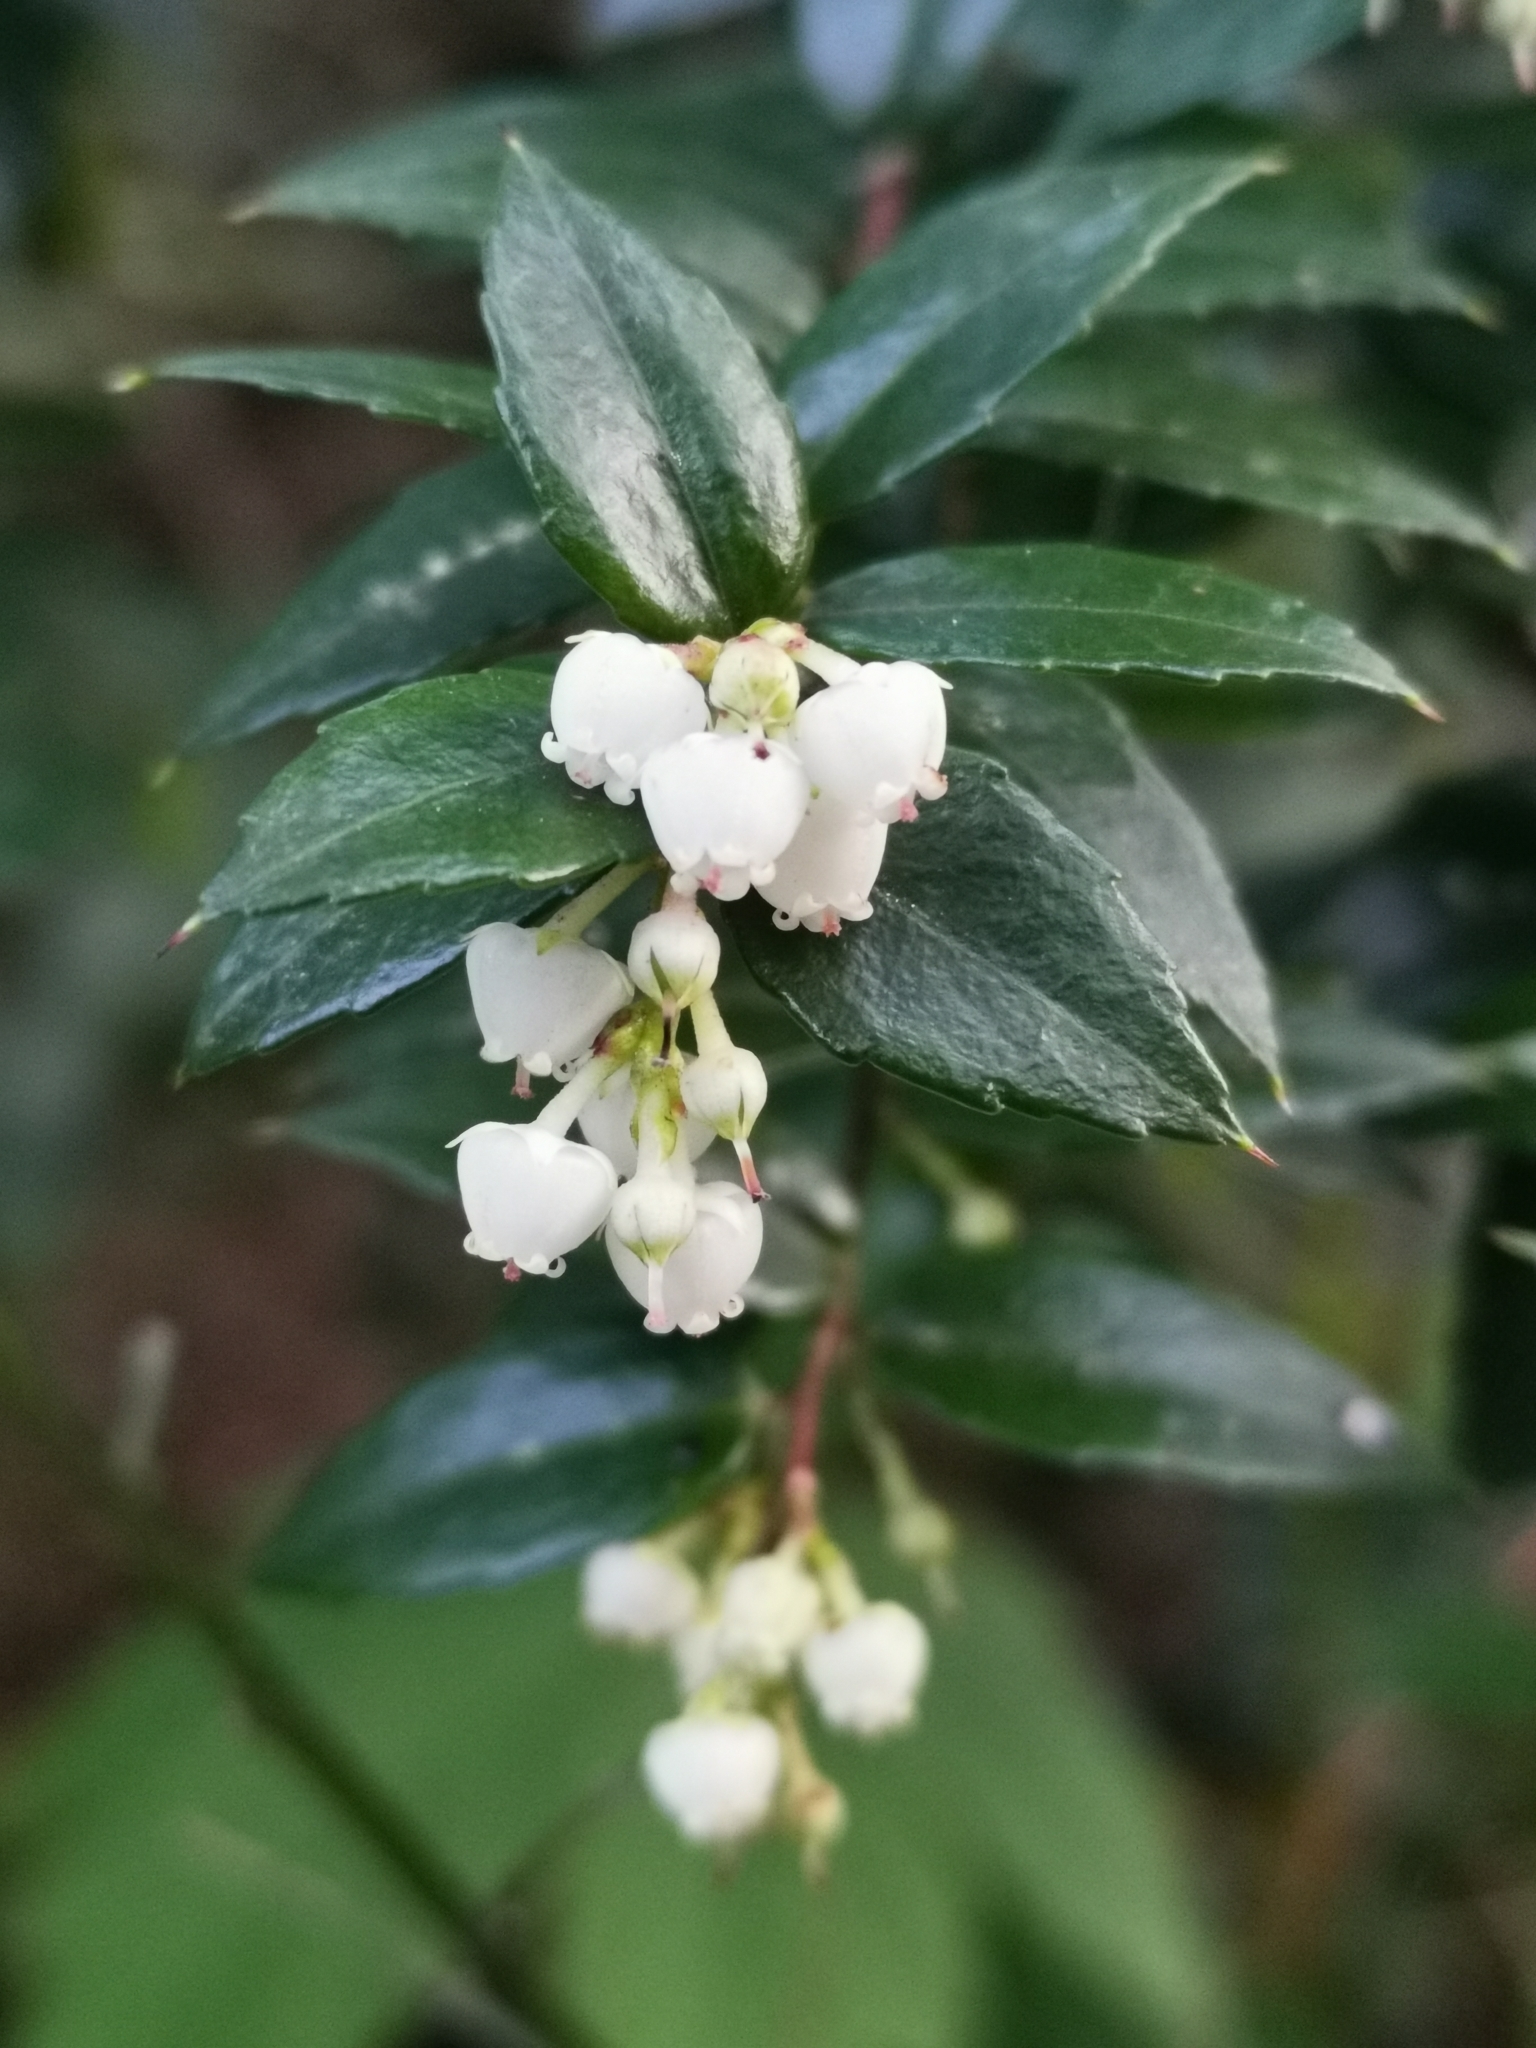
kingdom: Plantae
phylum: Tracheophyta
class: Magnoliopsida
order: Ericales
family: Ericaceae
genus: Gaultheria
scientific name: Gaultheria mucronata
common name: Prickly heath
